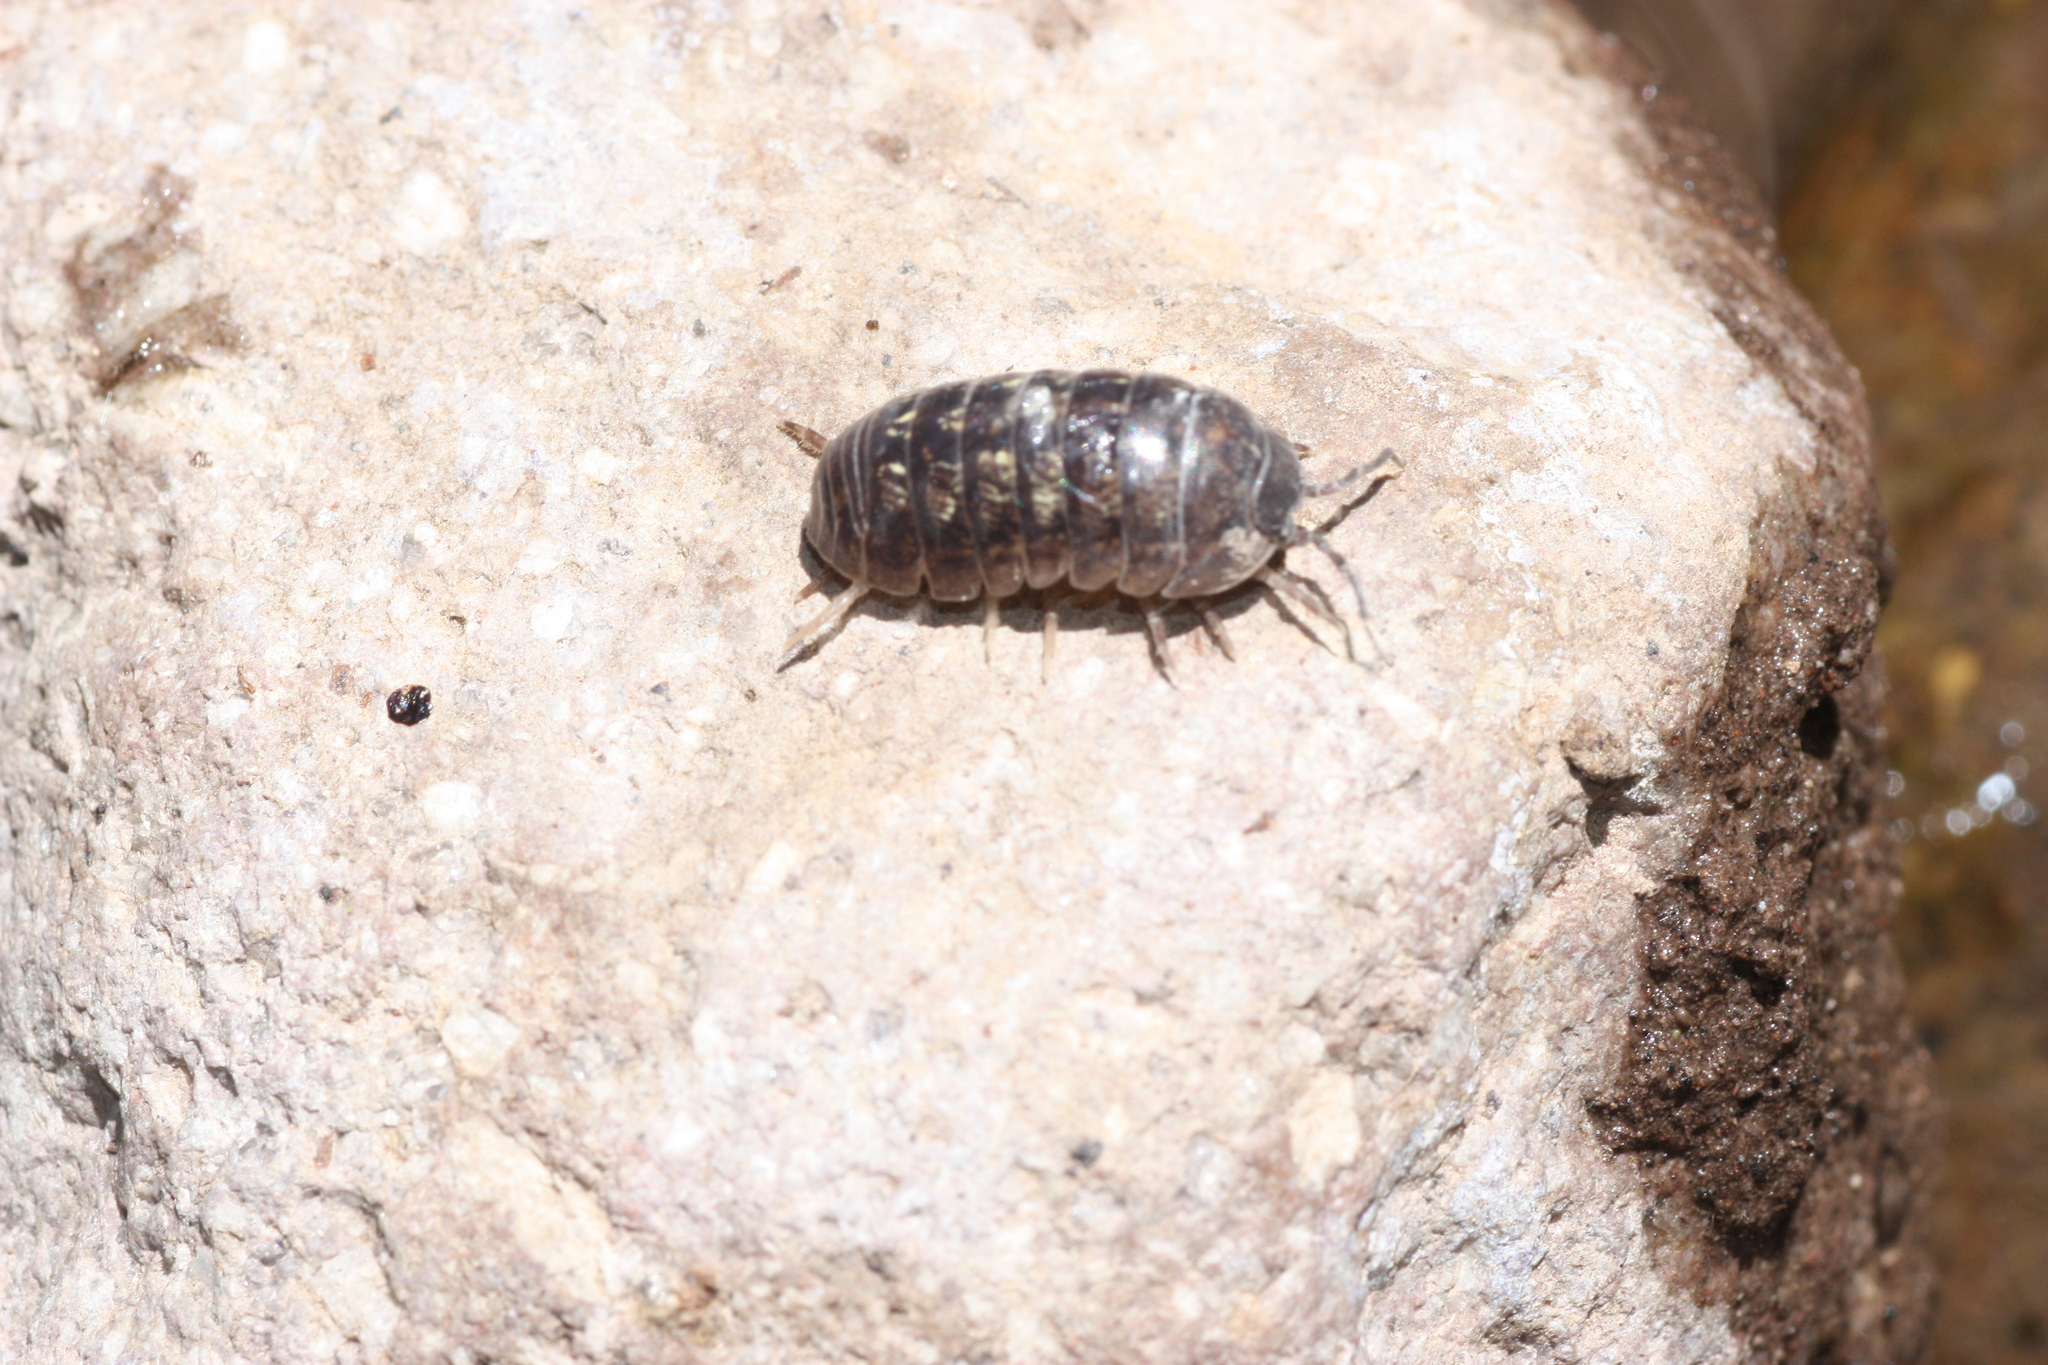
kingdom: Animalia
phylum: Arthropoda
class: Malacostraca
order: Isopoda
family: Armadillidiidae
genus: Armadillidium
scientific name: Armadillidium vulgare
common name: Common pill woodlouse
